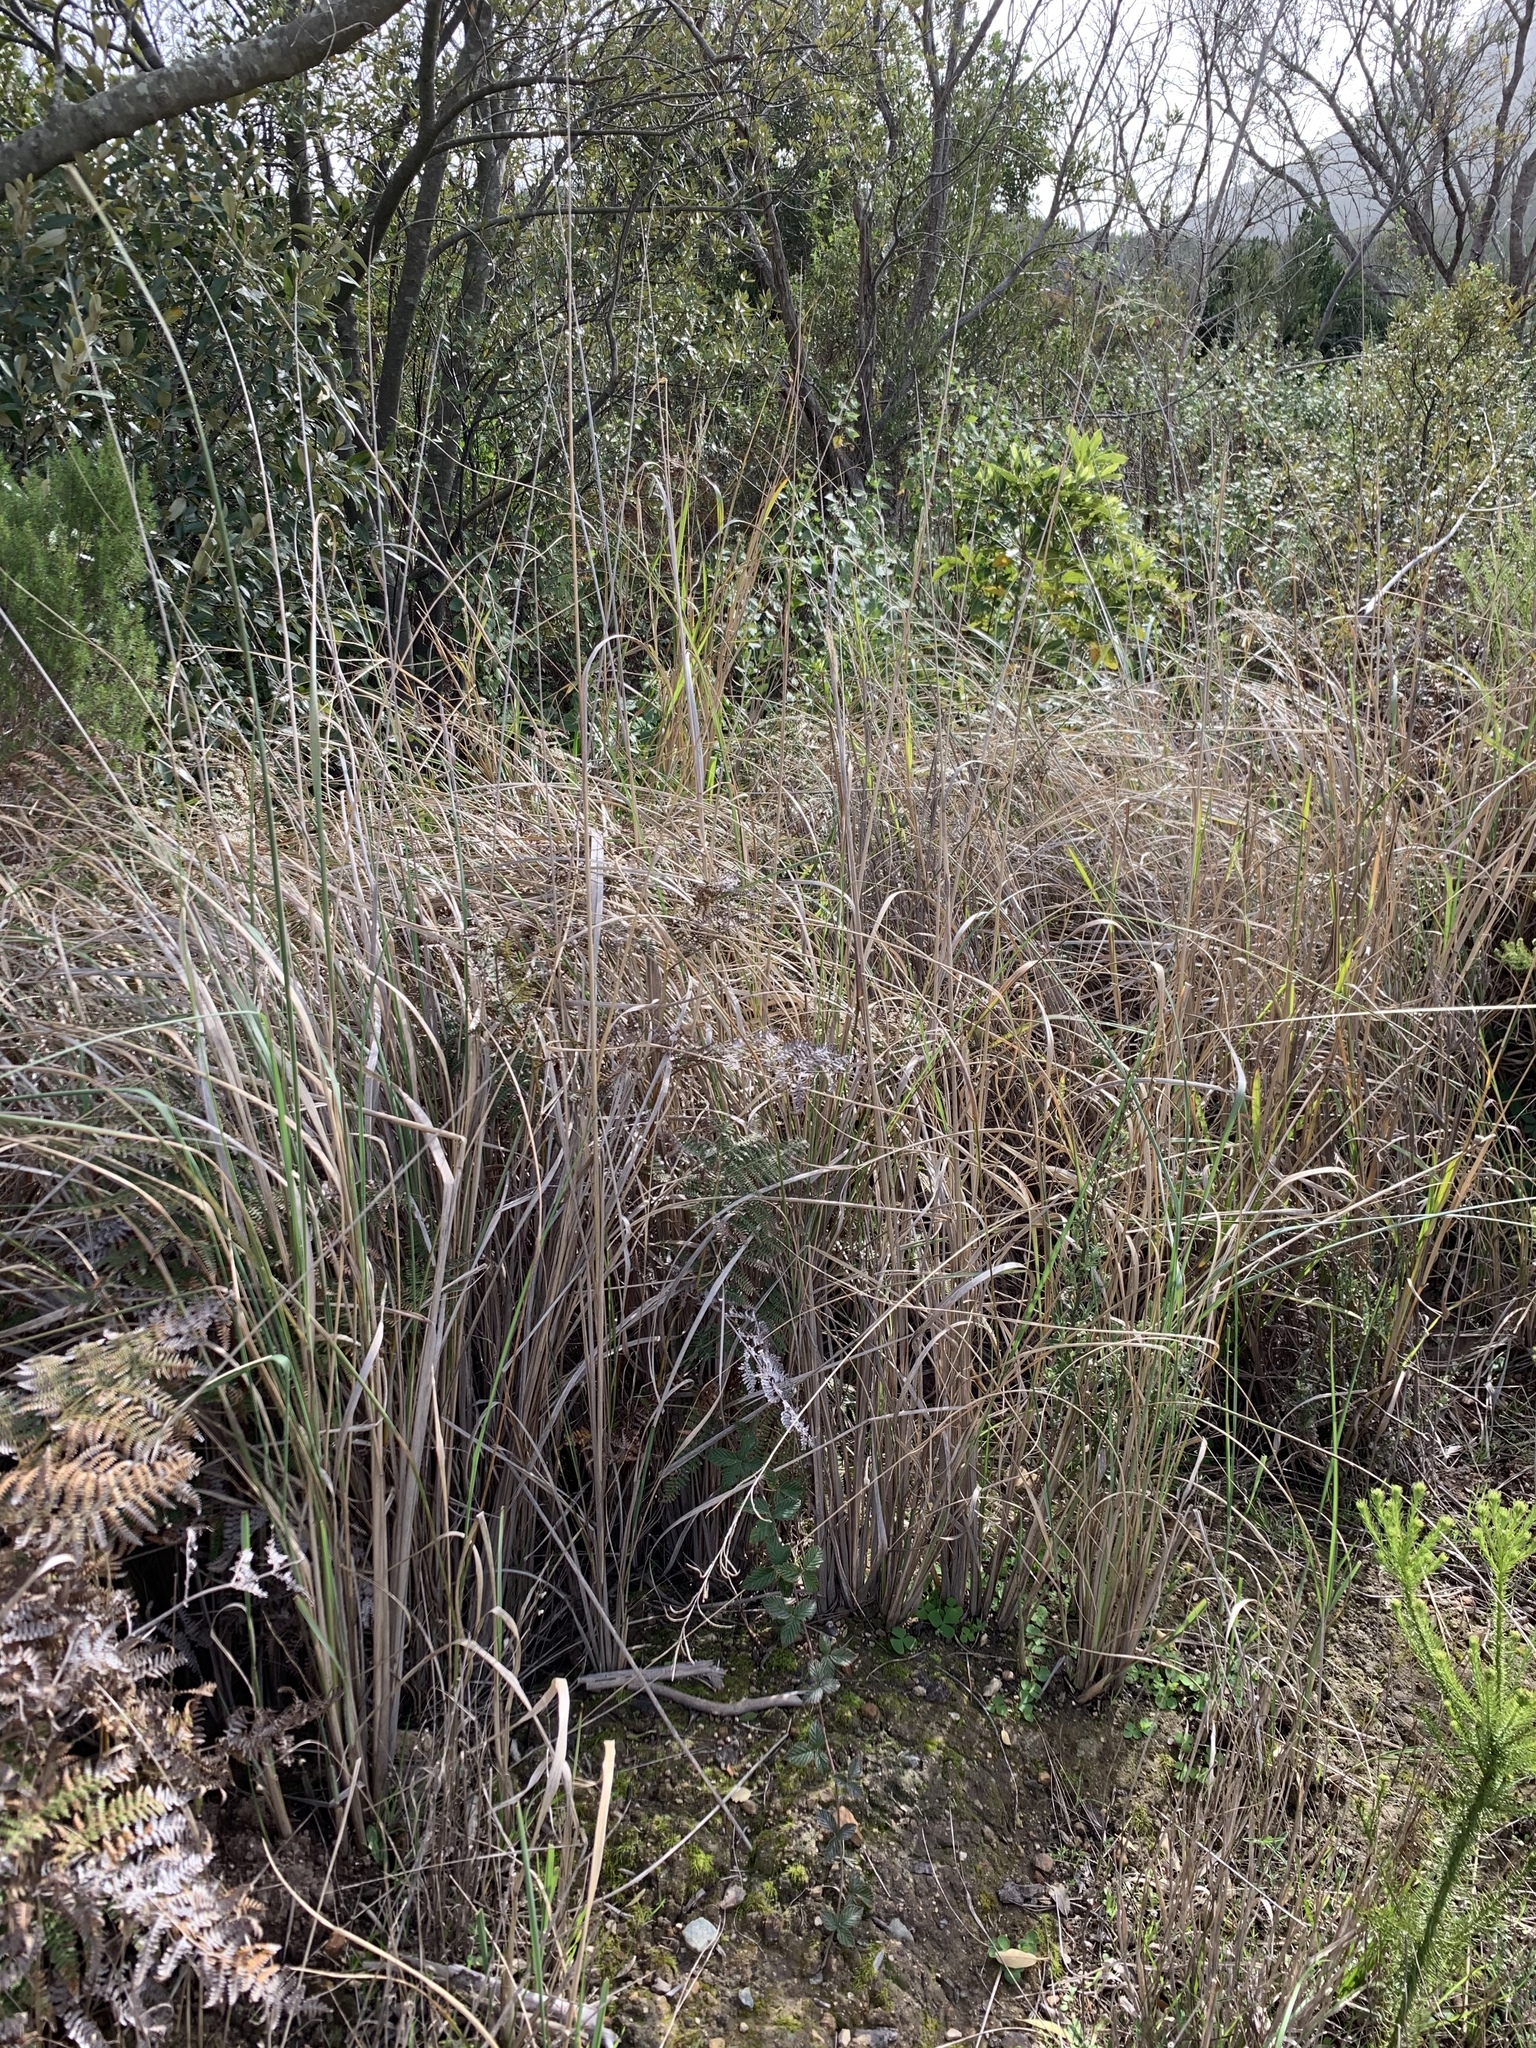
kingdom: Plantae
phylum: Tracheophyta
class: Liliopsida
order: Poales
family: Poaceae
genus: Cenchrus
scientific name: Cenchrus caudatus
